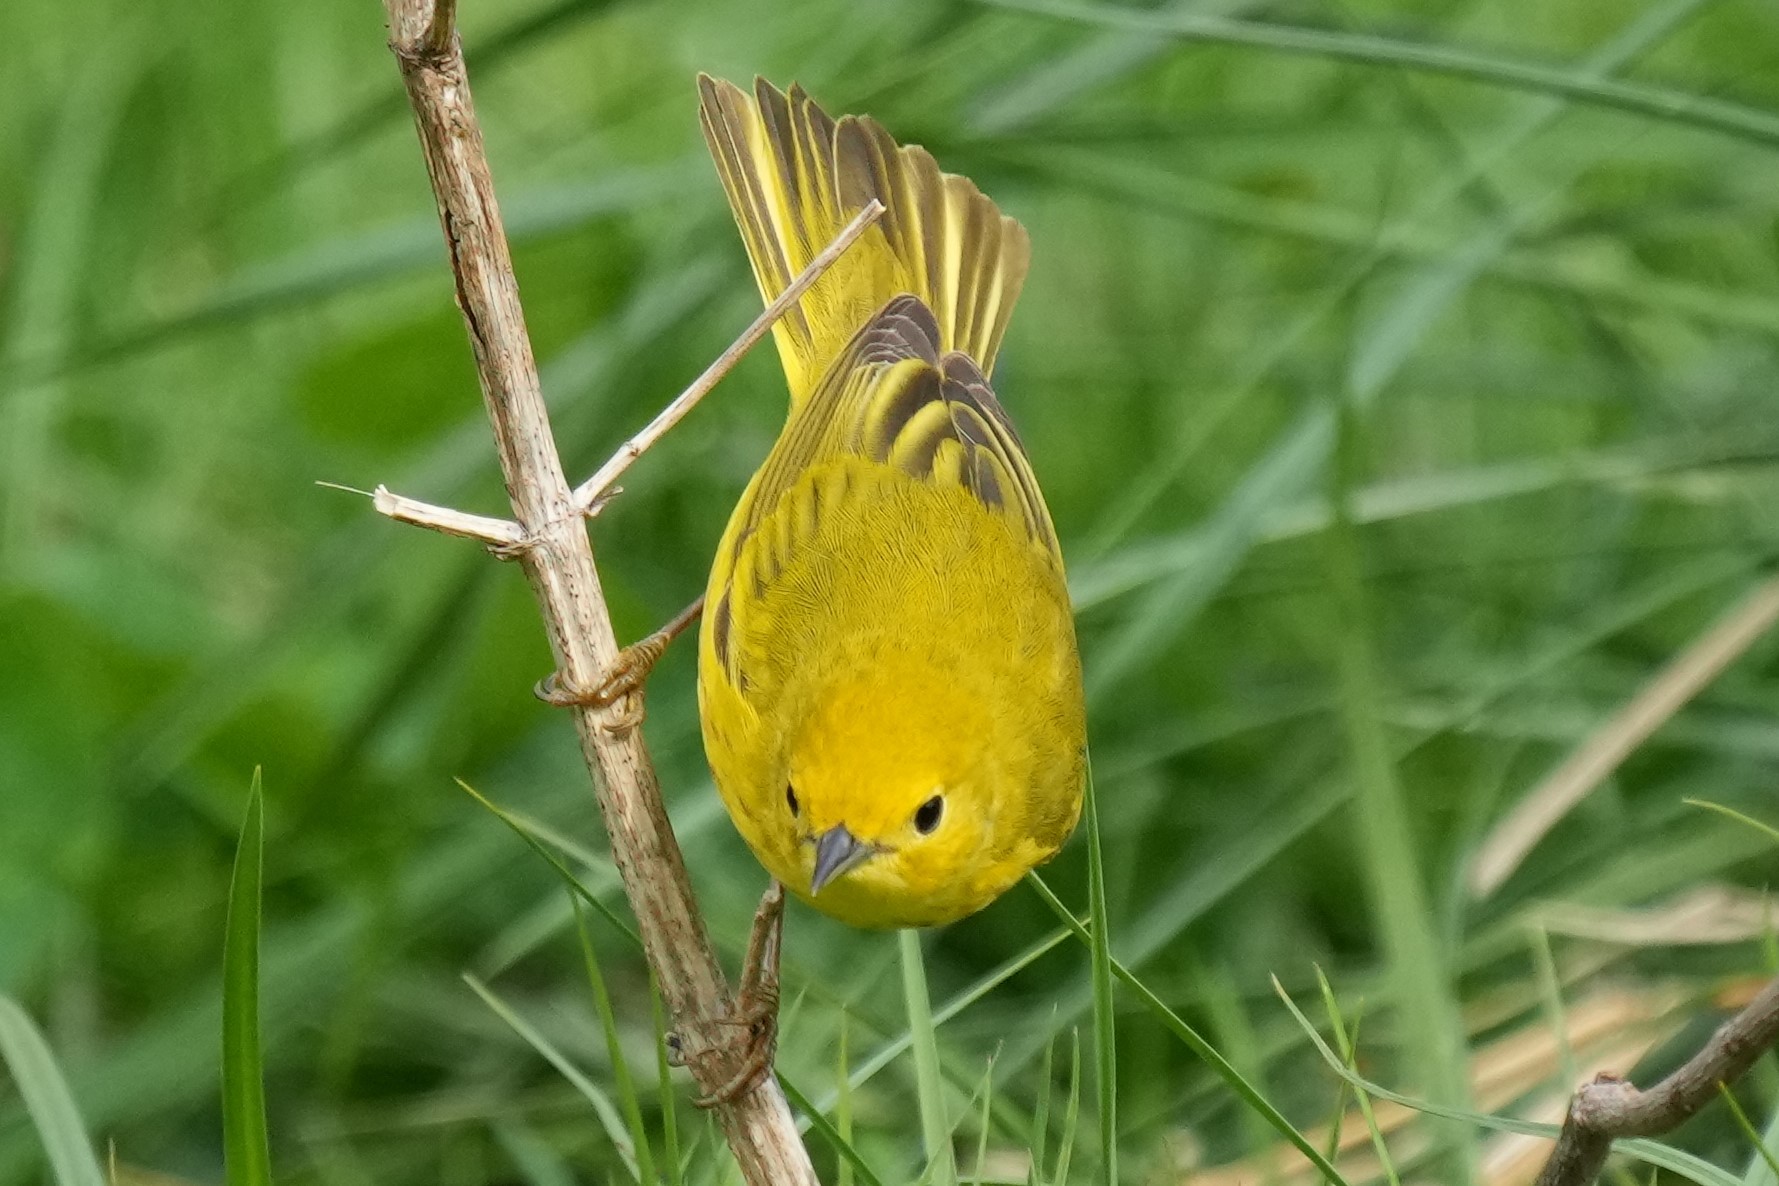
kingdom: Animalia
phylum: Chordata
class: Aves
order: Passeriformes
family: Parulidae
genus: Setophaga
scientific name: Setophaga petechia
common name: Yellow warbler
